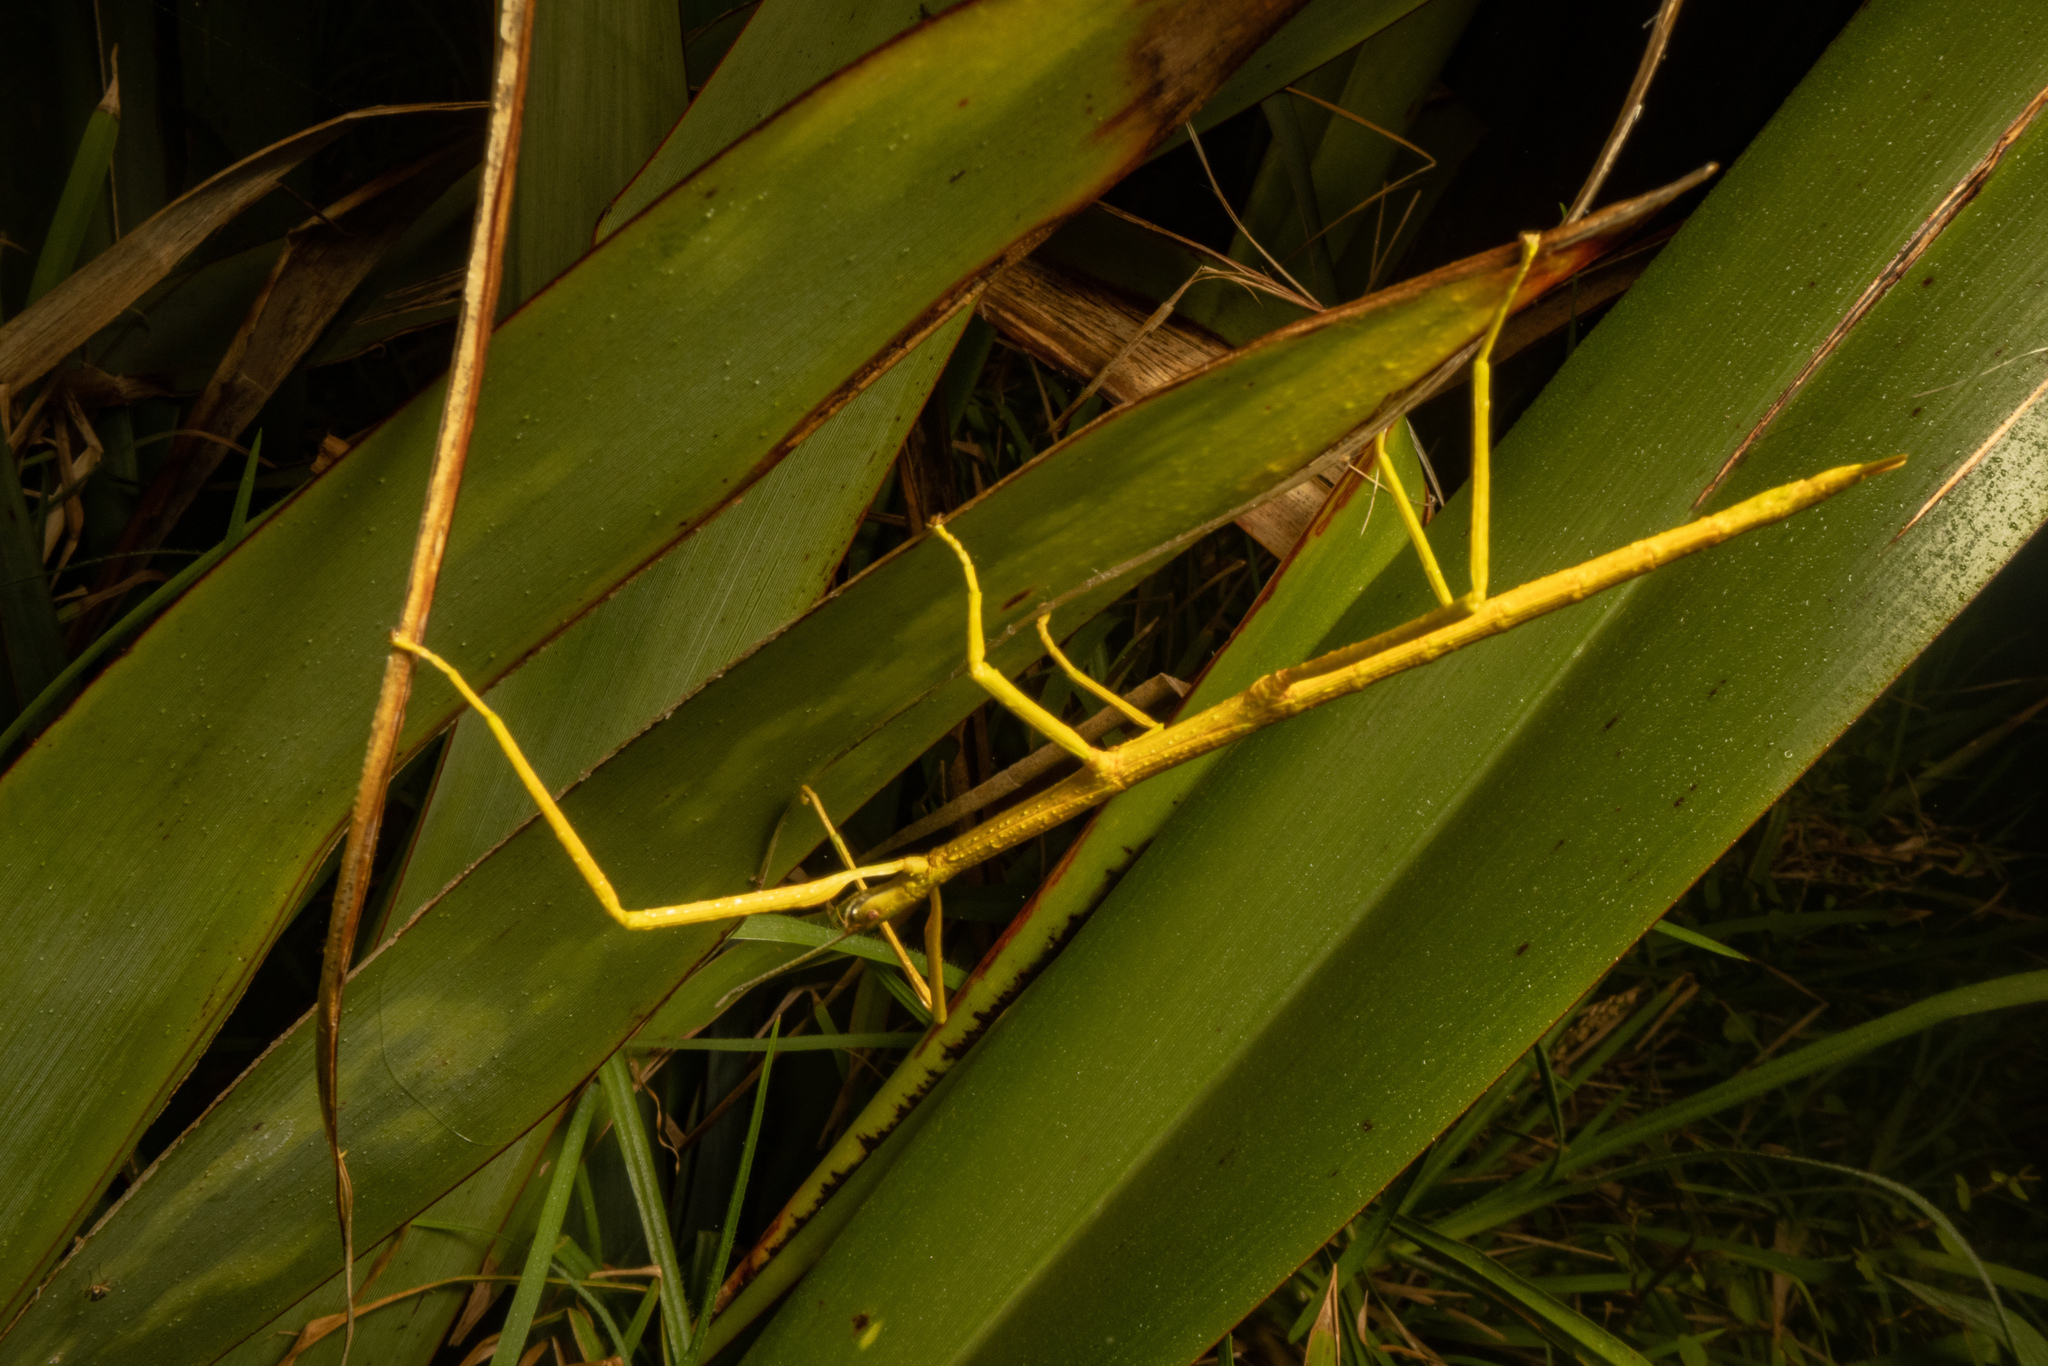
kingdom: Animalia
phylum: Arthropoda
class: Insecta
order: Phasmida
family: Phasmatidae
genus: Clitarchus
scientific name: Clitarchus hookeri
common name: Smooth stick insect
